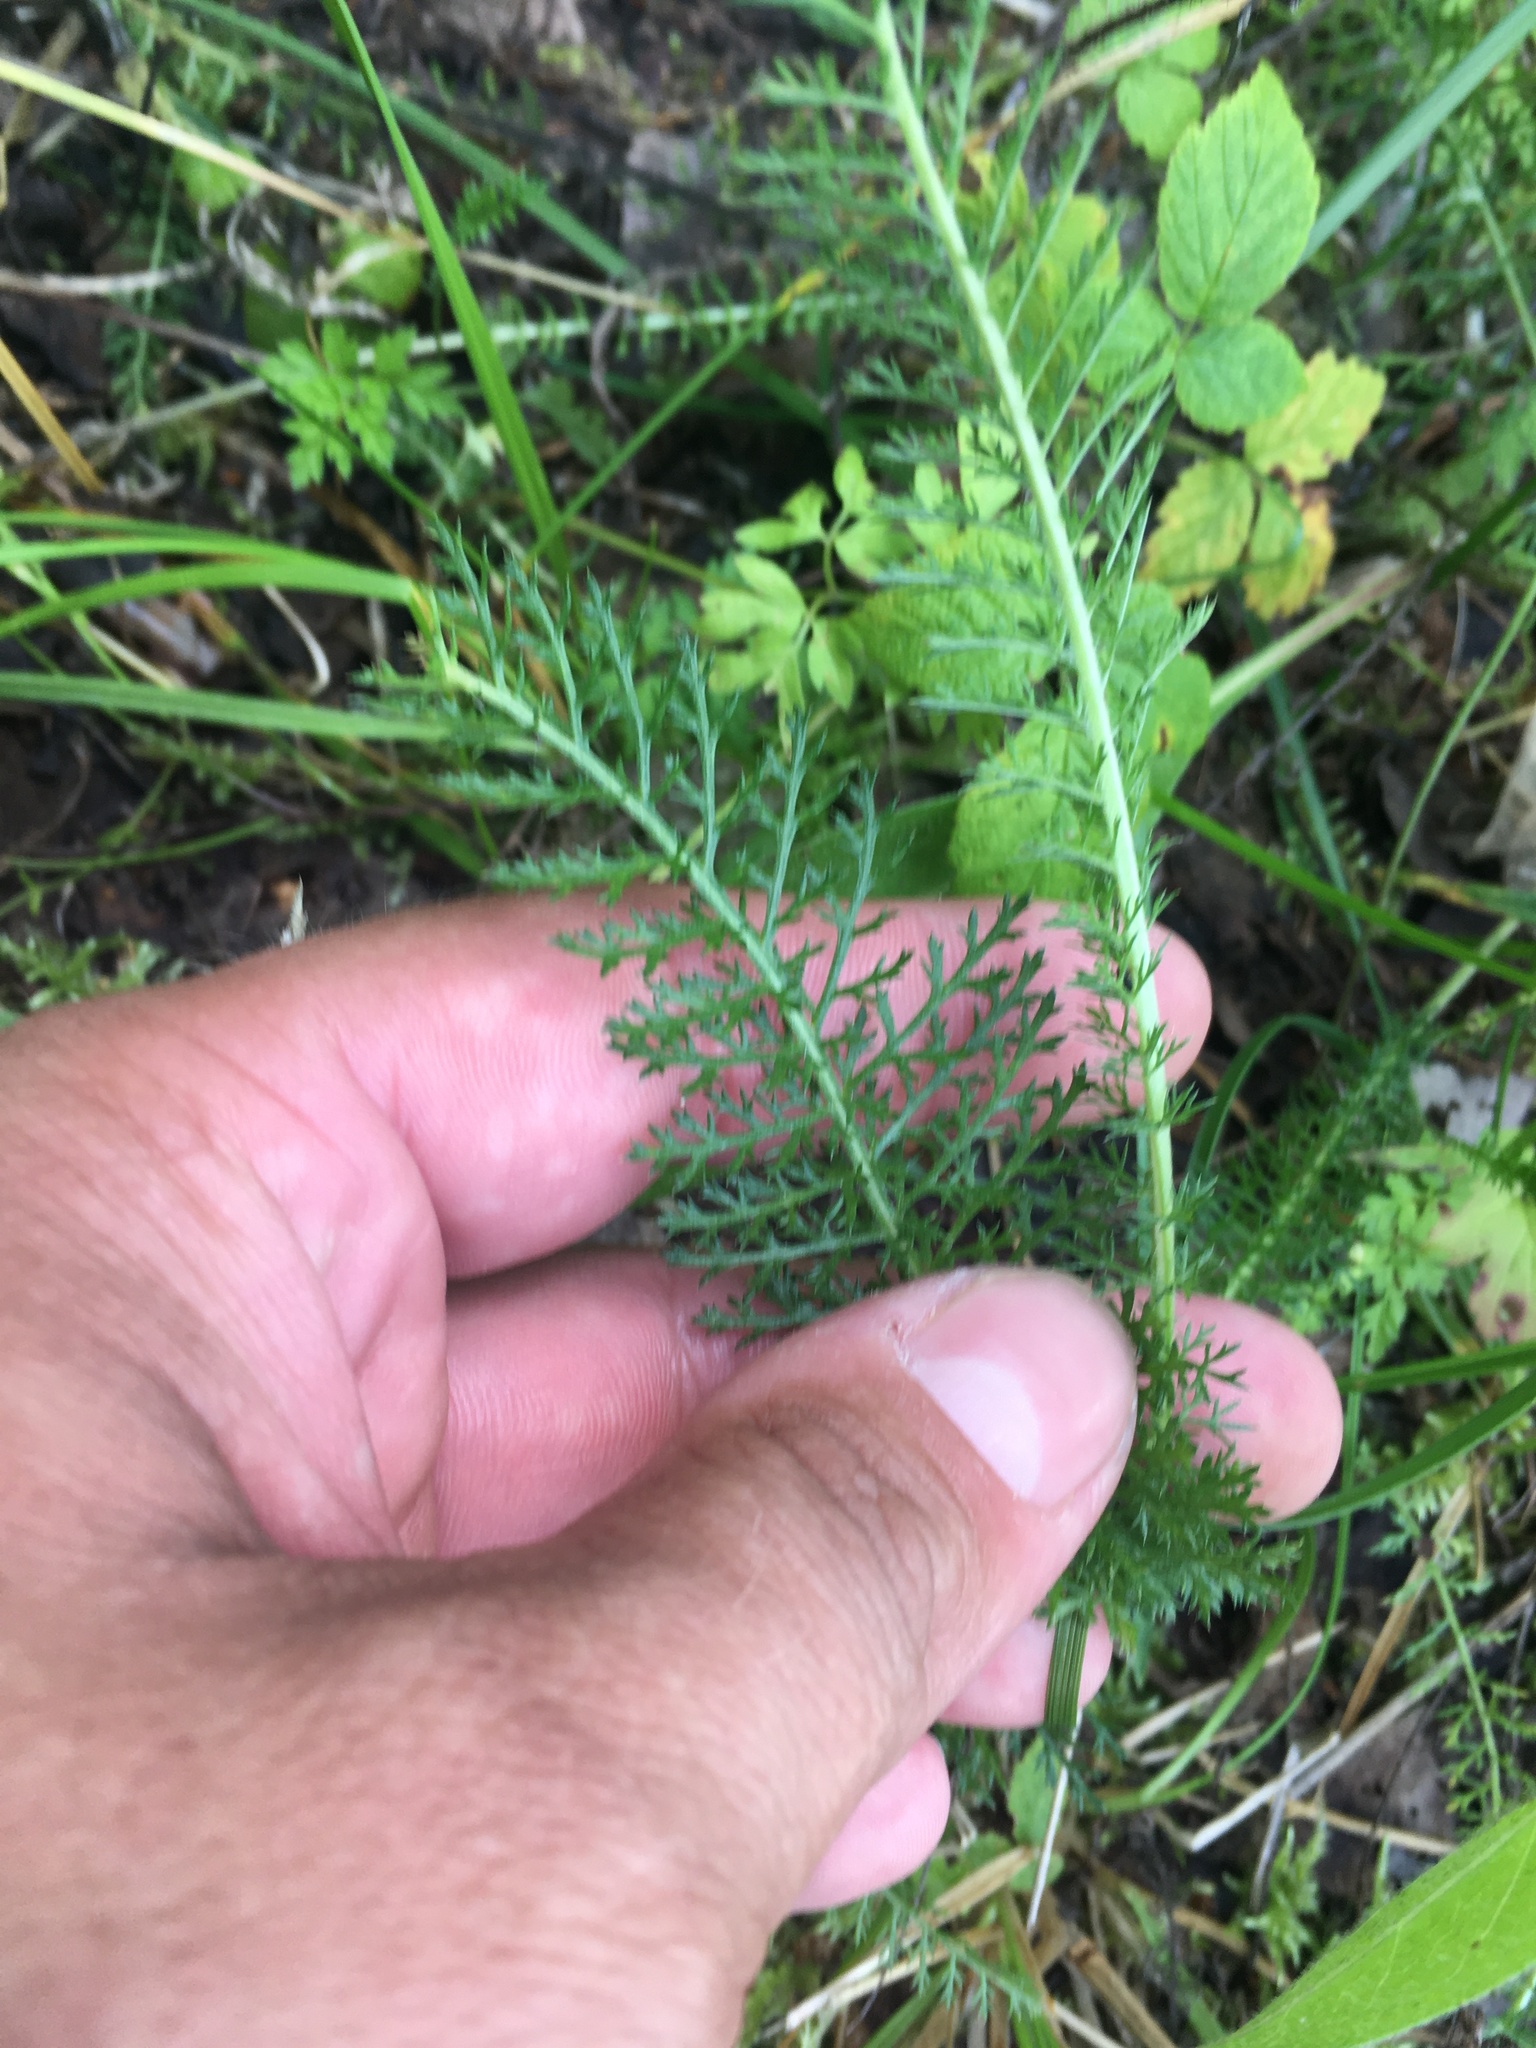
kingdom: Plantae
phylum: Tracheophyta
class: Magnoliopsida
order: Asterales
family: Asteraceae
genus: Achillea
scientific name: Achillea millefolium
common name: Yarrow
